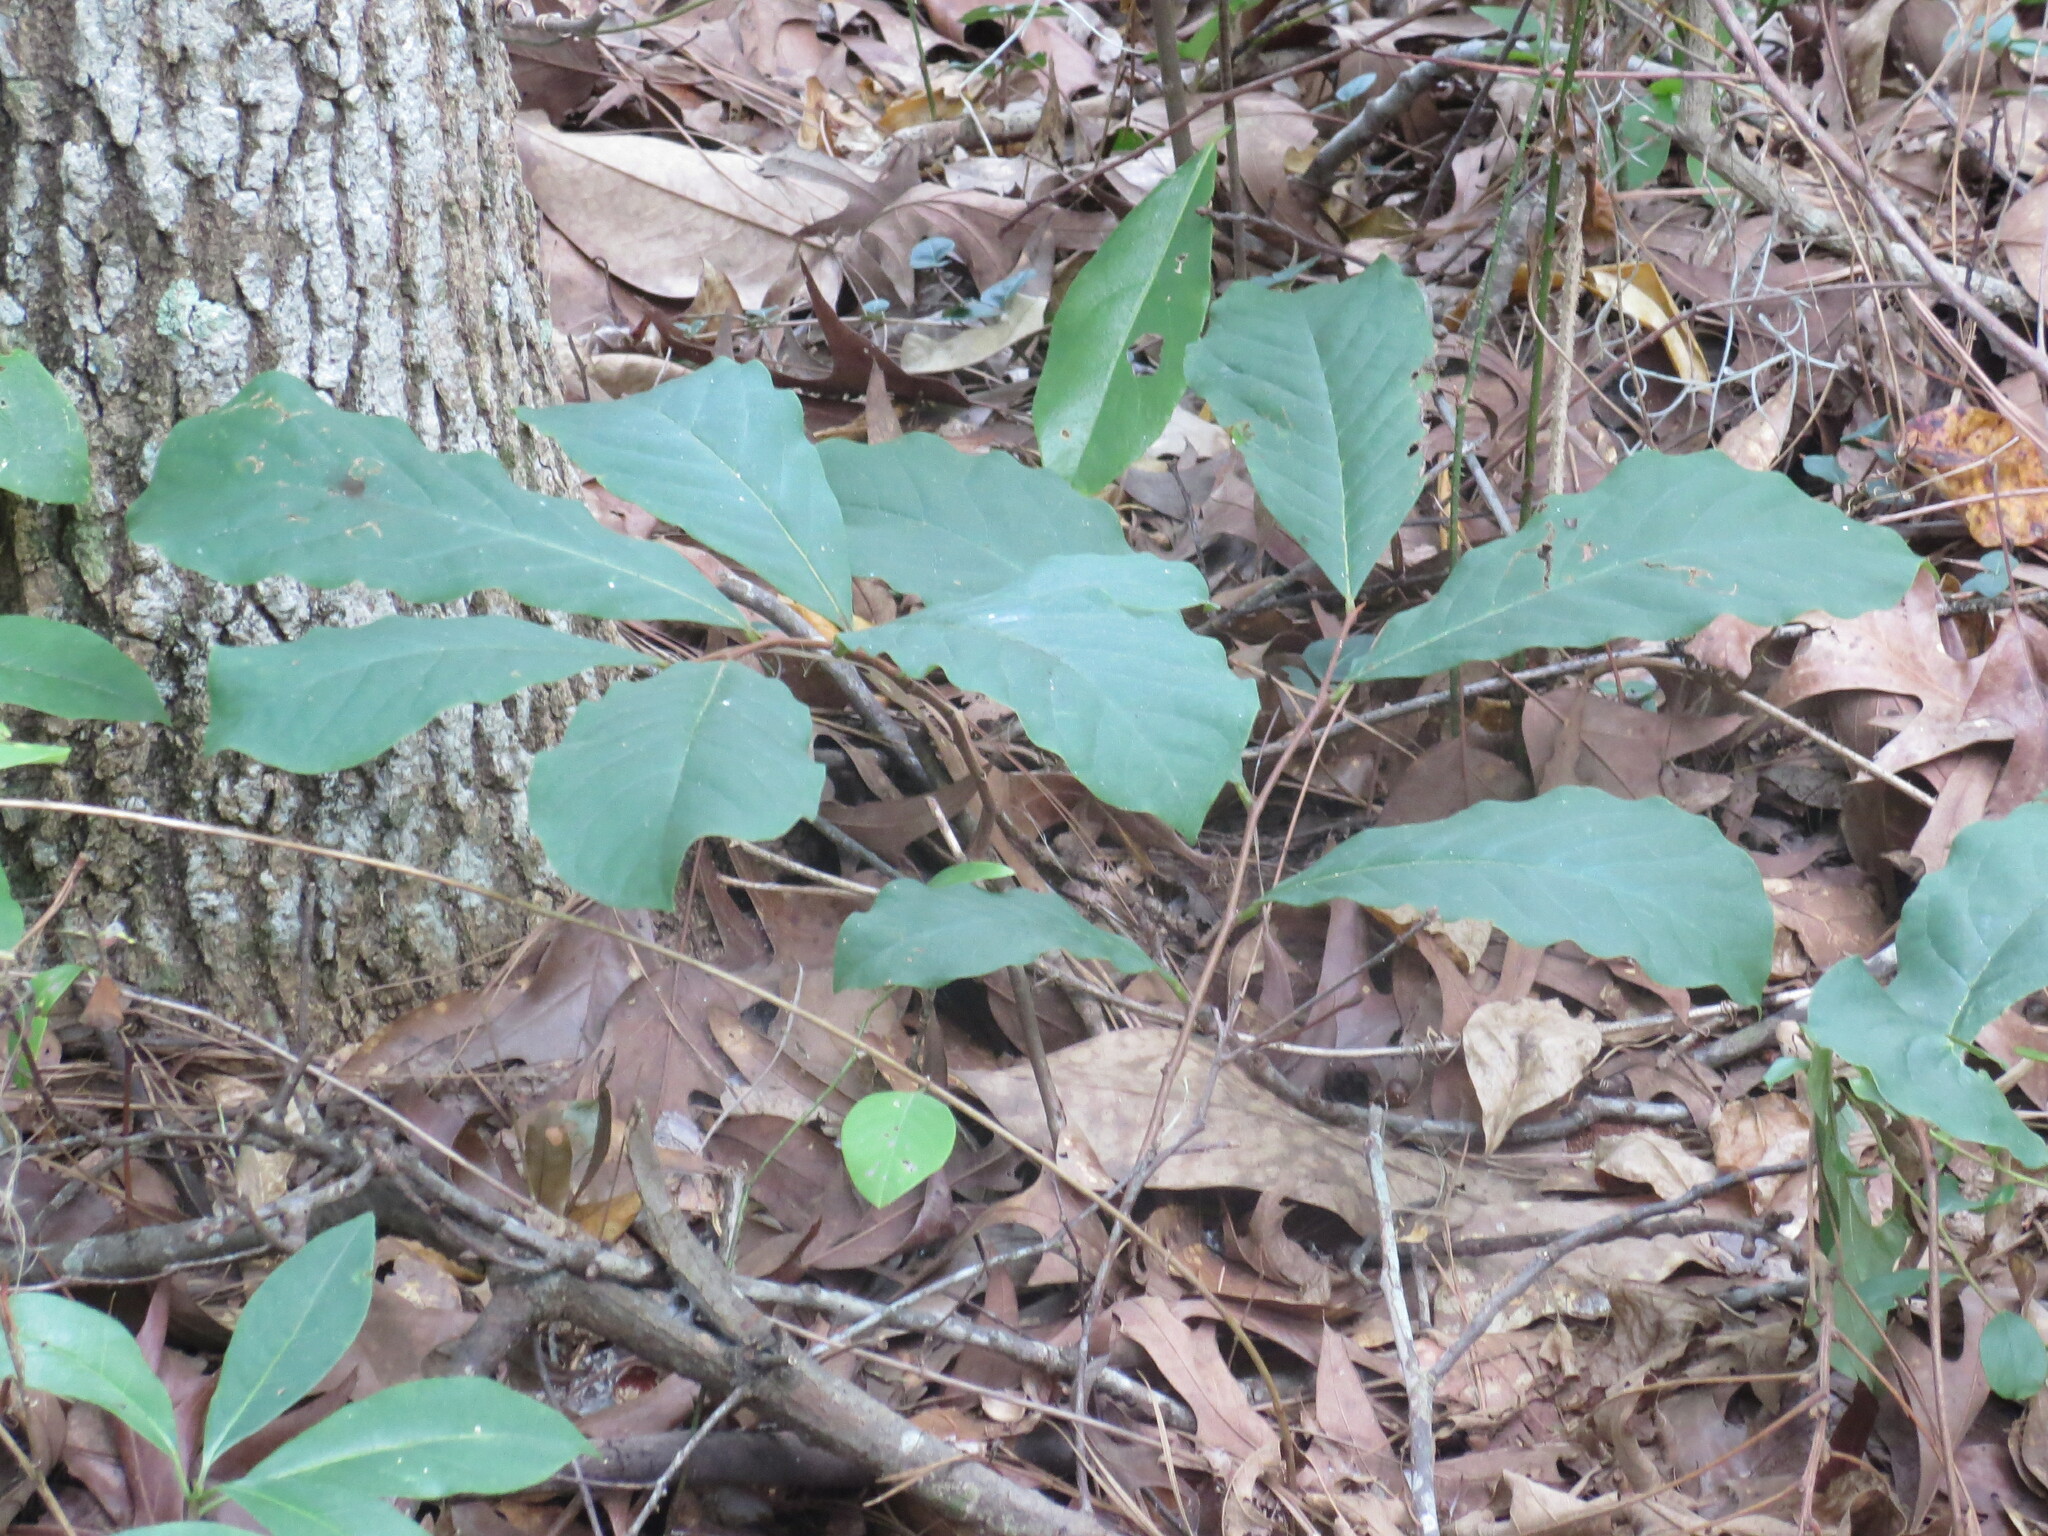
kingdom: Plantae
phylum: Tracheophyta
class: Magnoliopsida
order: Magnoliales
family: Annonaceae
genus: Asimina
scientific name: Asimina parviflora
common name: Dwarf pawpaw
